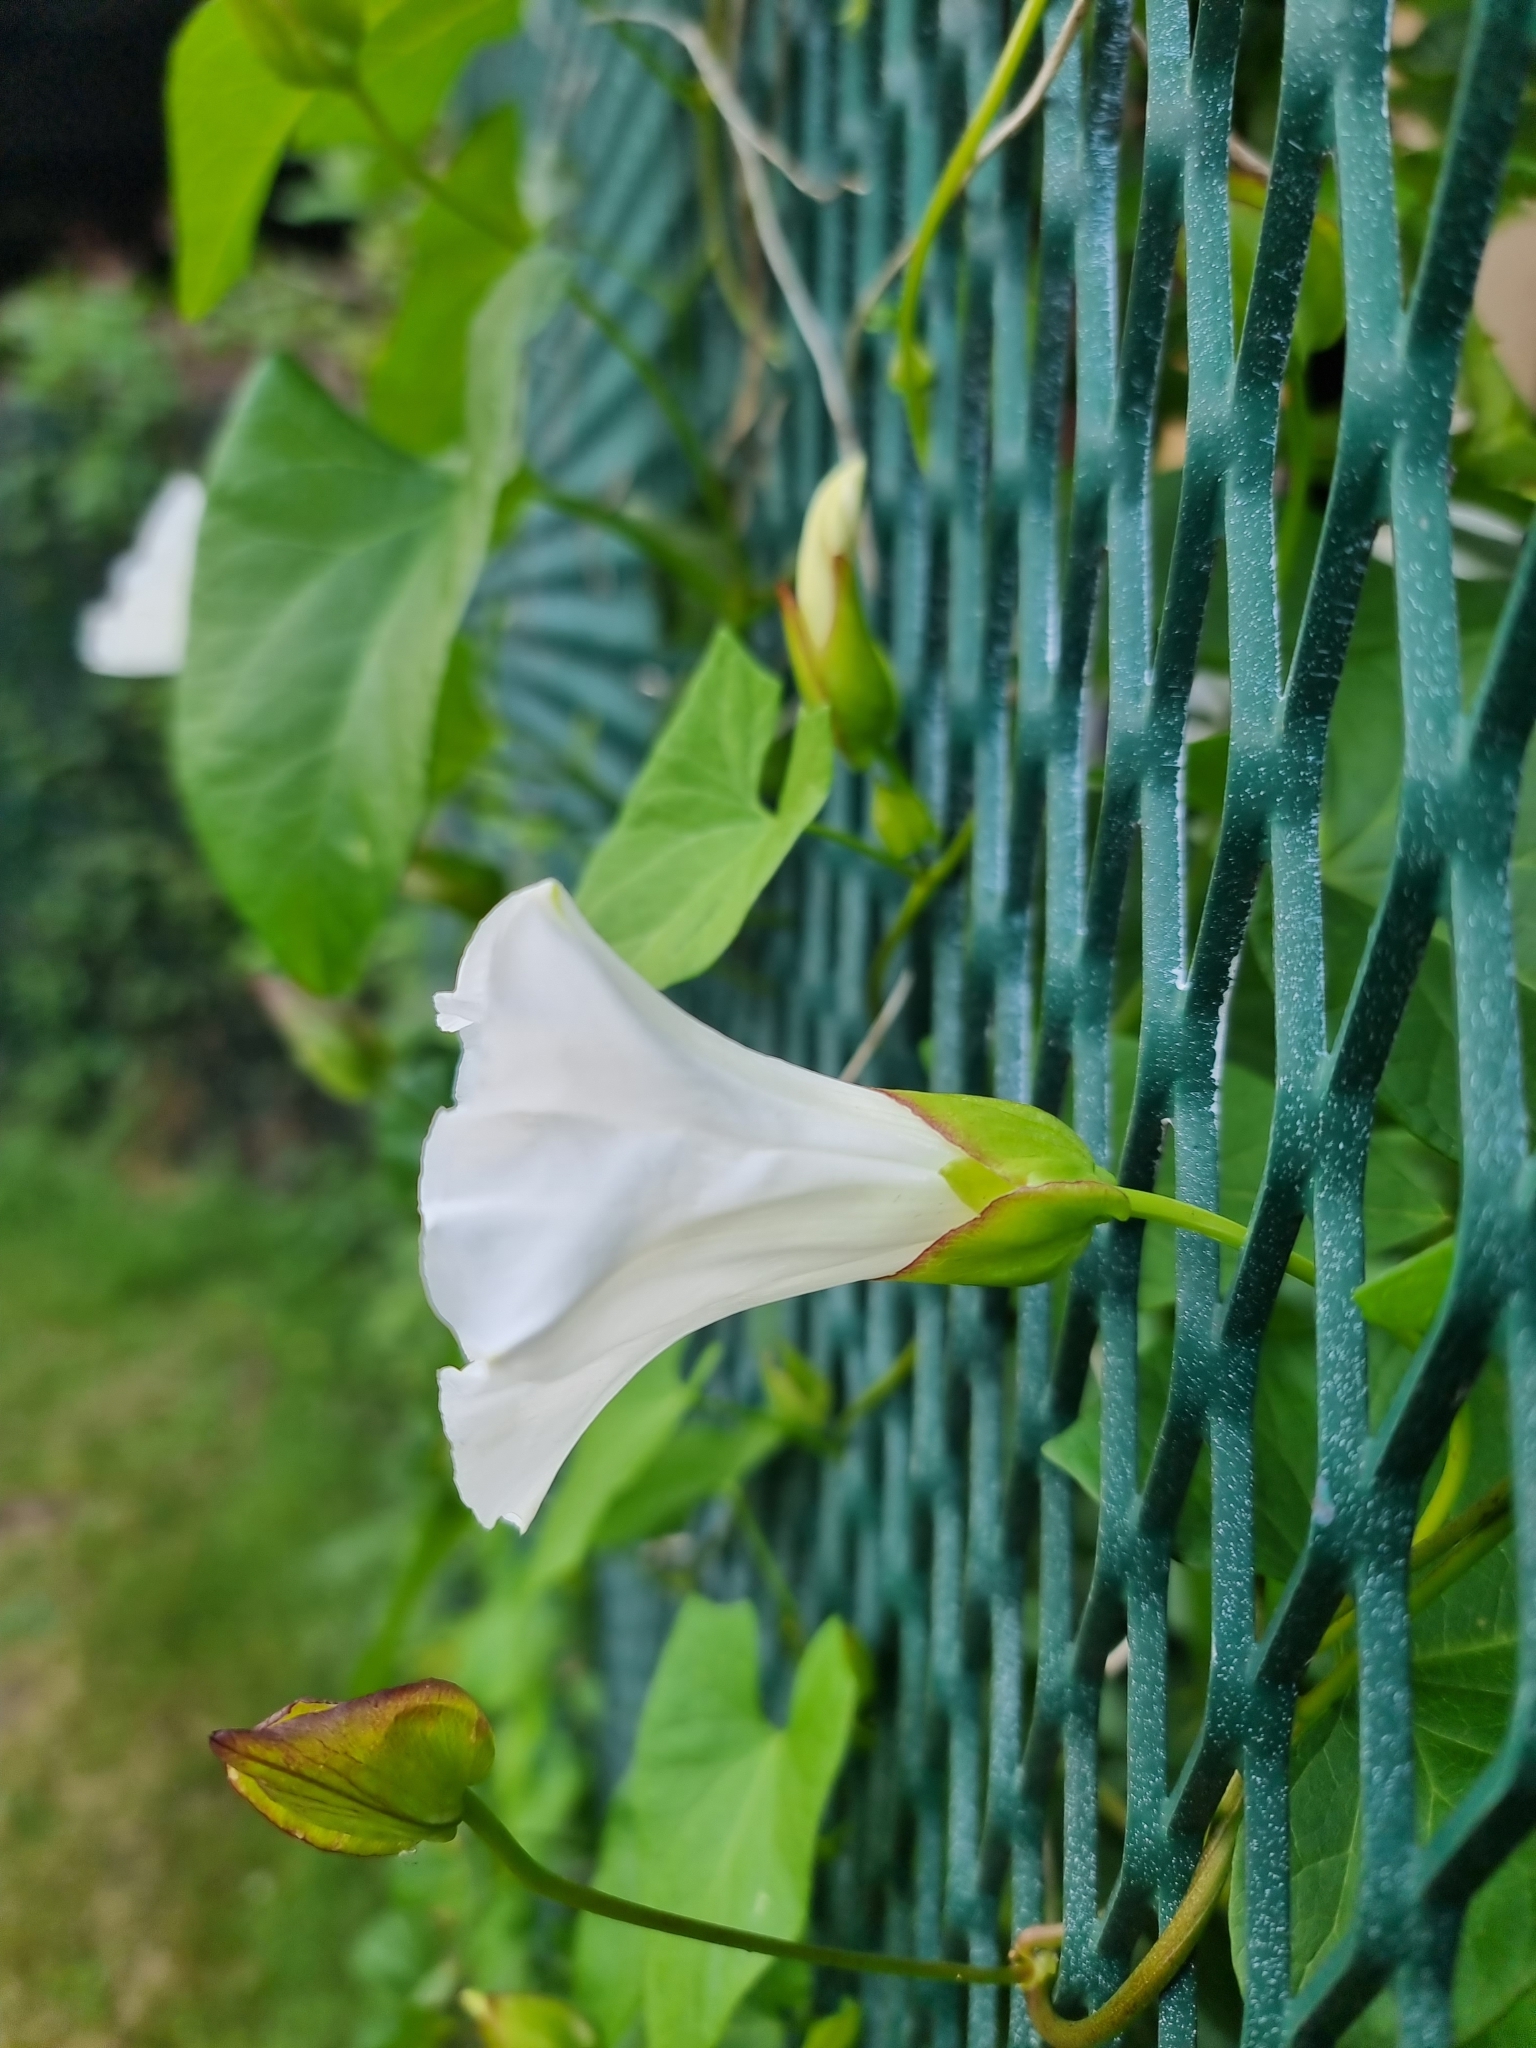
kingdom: Plantae
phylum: Tracheophyta
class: Magnoliopsida
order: Solanales
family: Convolvulaceae
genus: Calystegia
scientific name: Calystegia lucana
